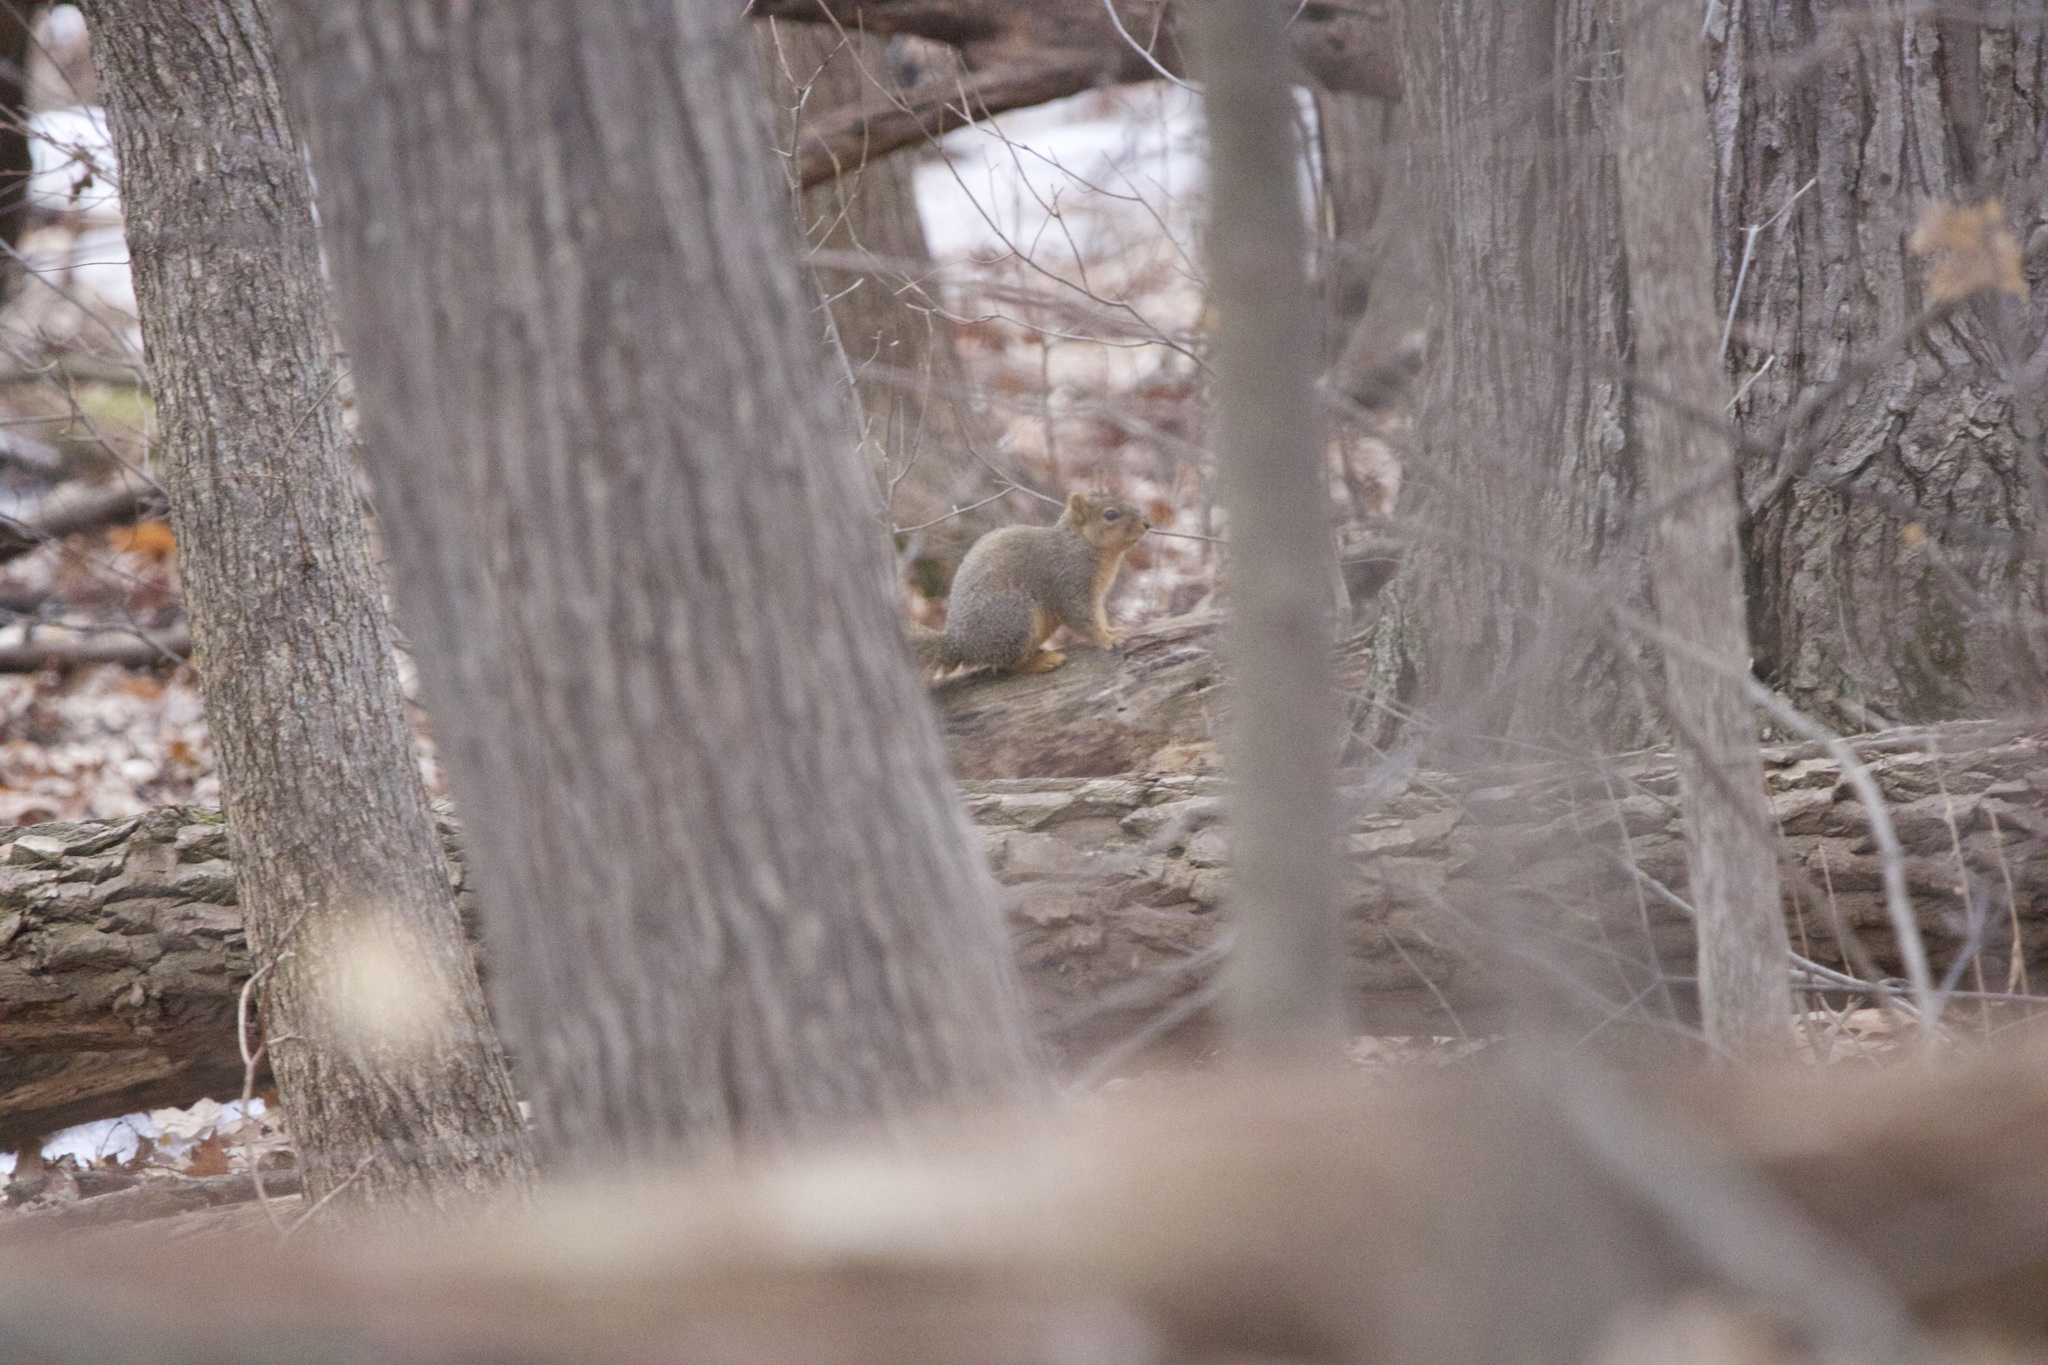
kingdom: Animalia
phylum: Chordata
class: Mammalia
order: Rodentia
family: Sciuridae
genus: Sciurus
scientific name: Sciurus niger
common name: Fox squirrel
